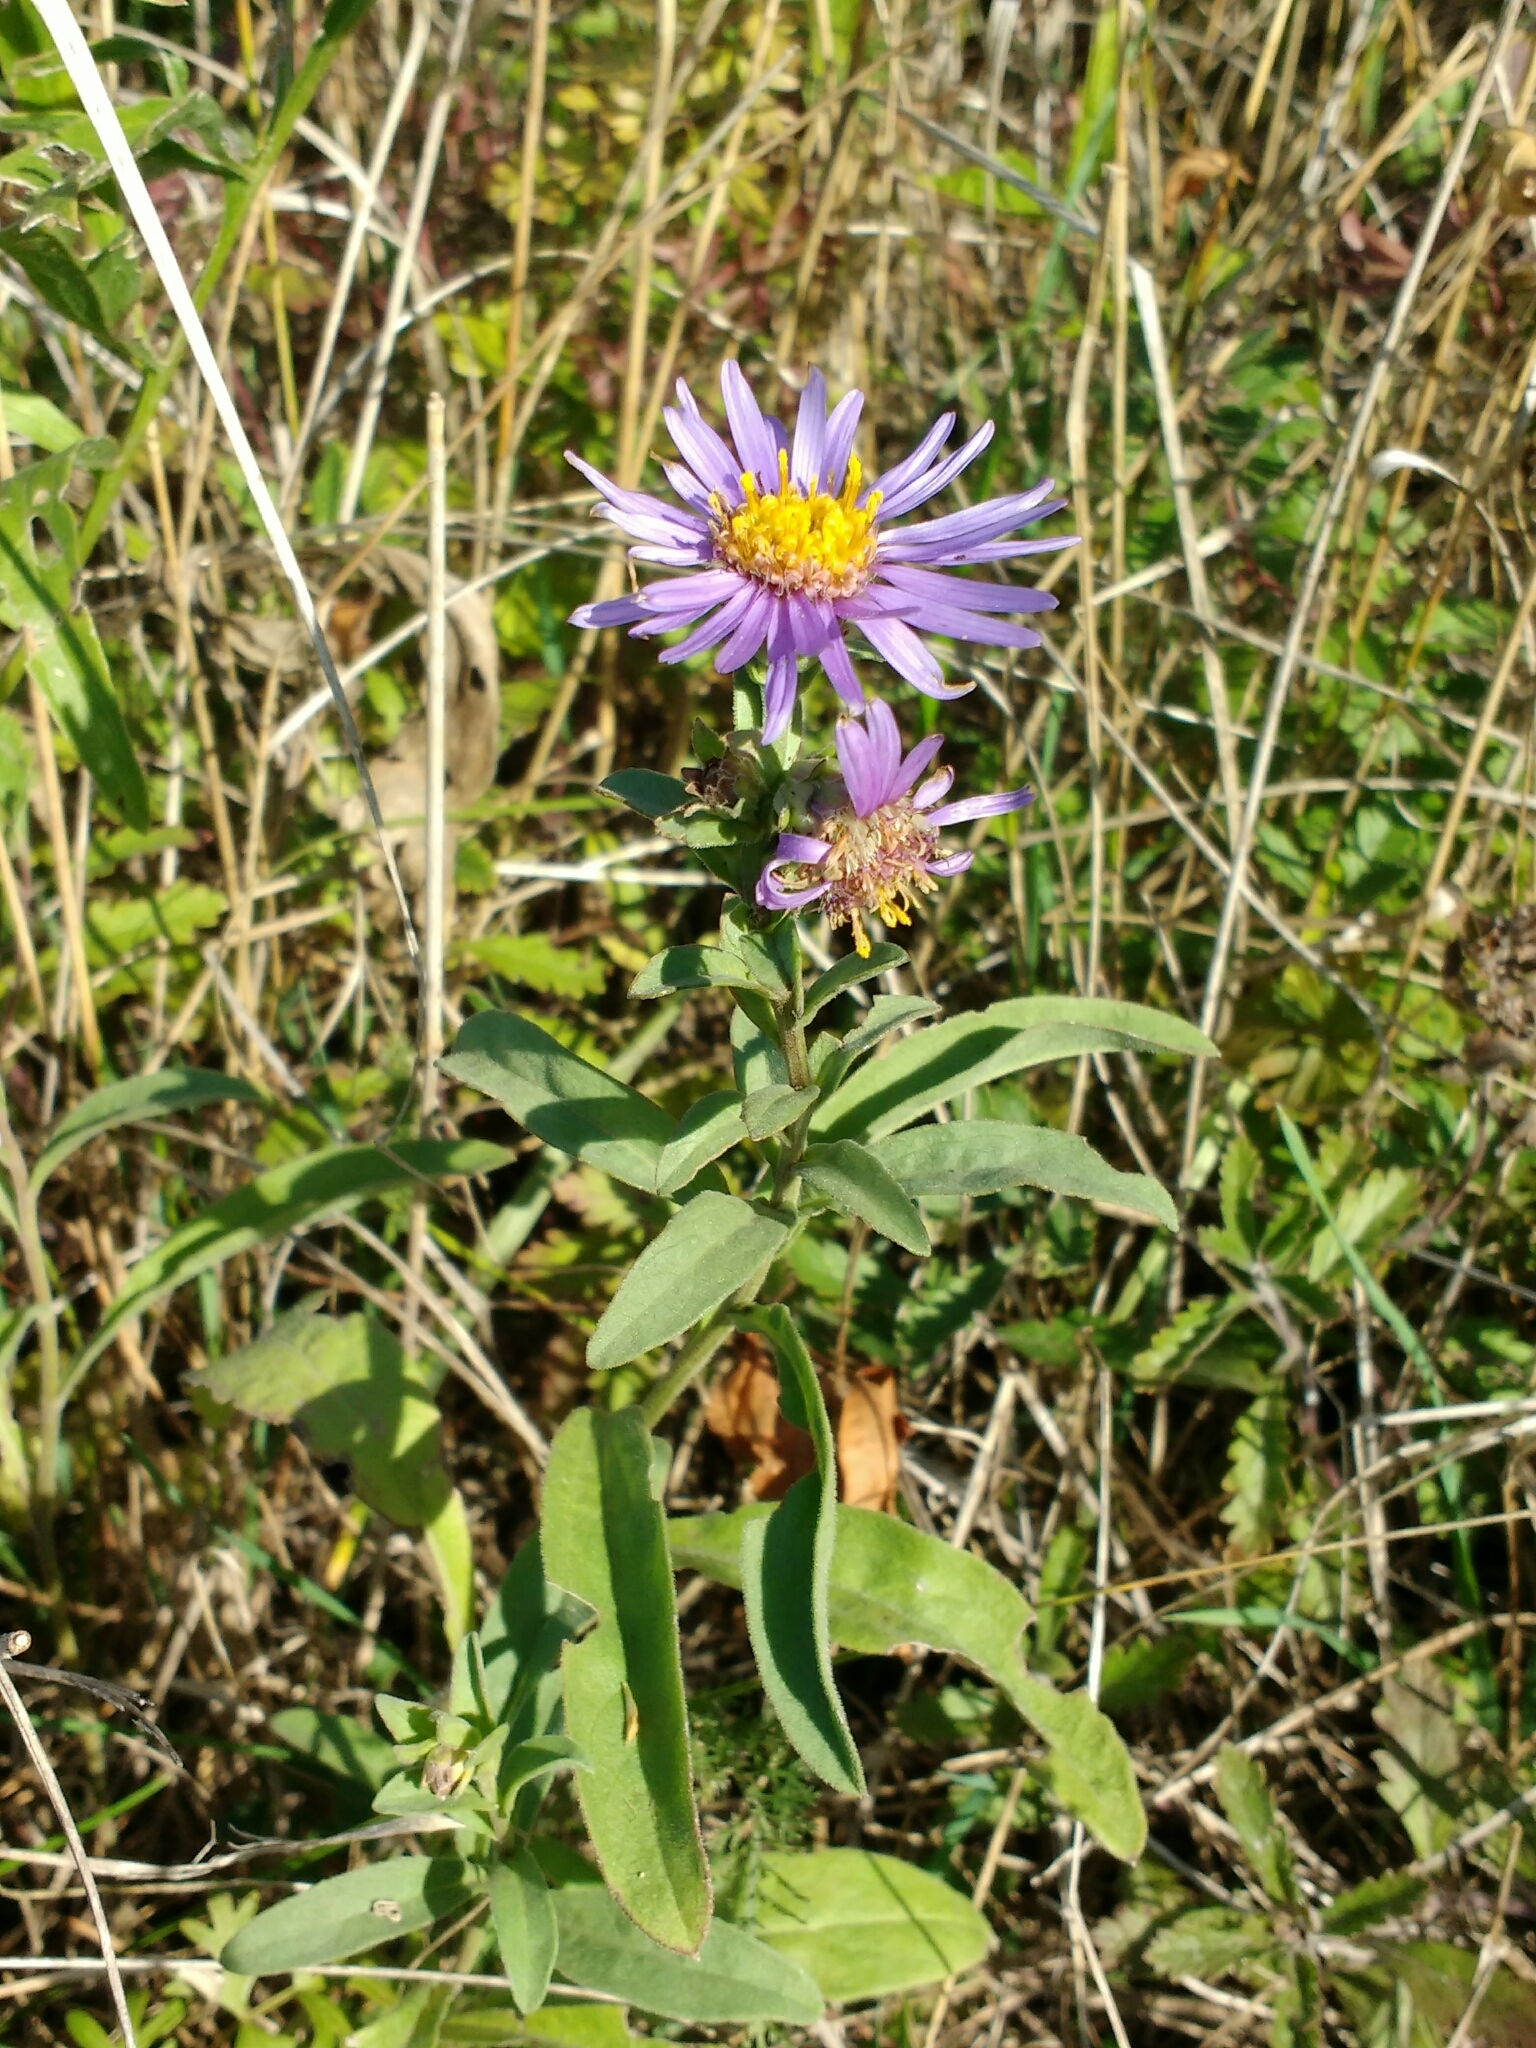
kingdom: Plantae
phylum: Tracheophyta
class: Magnoliopsida
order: Asterales
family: Asteraceae
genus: Aster
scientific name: Aster amellus
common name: European michaelmas daisy
